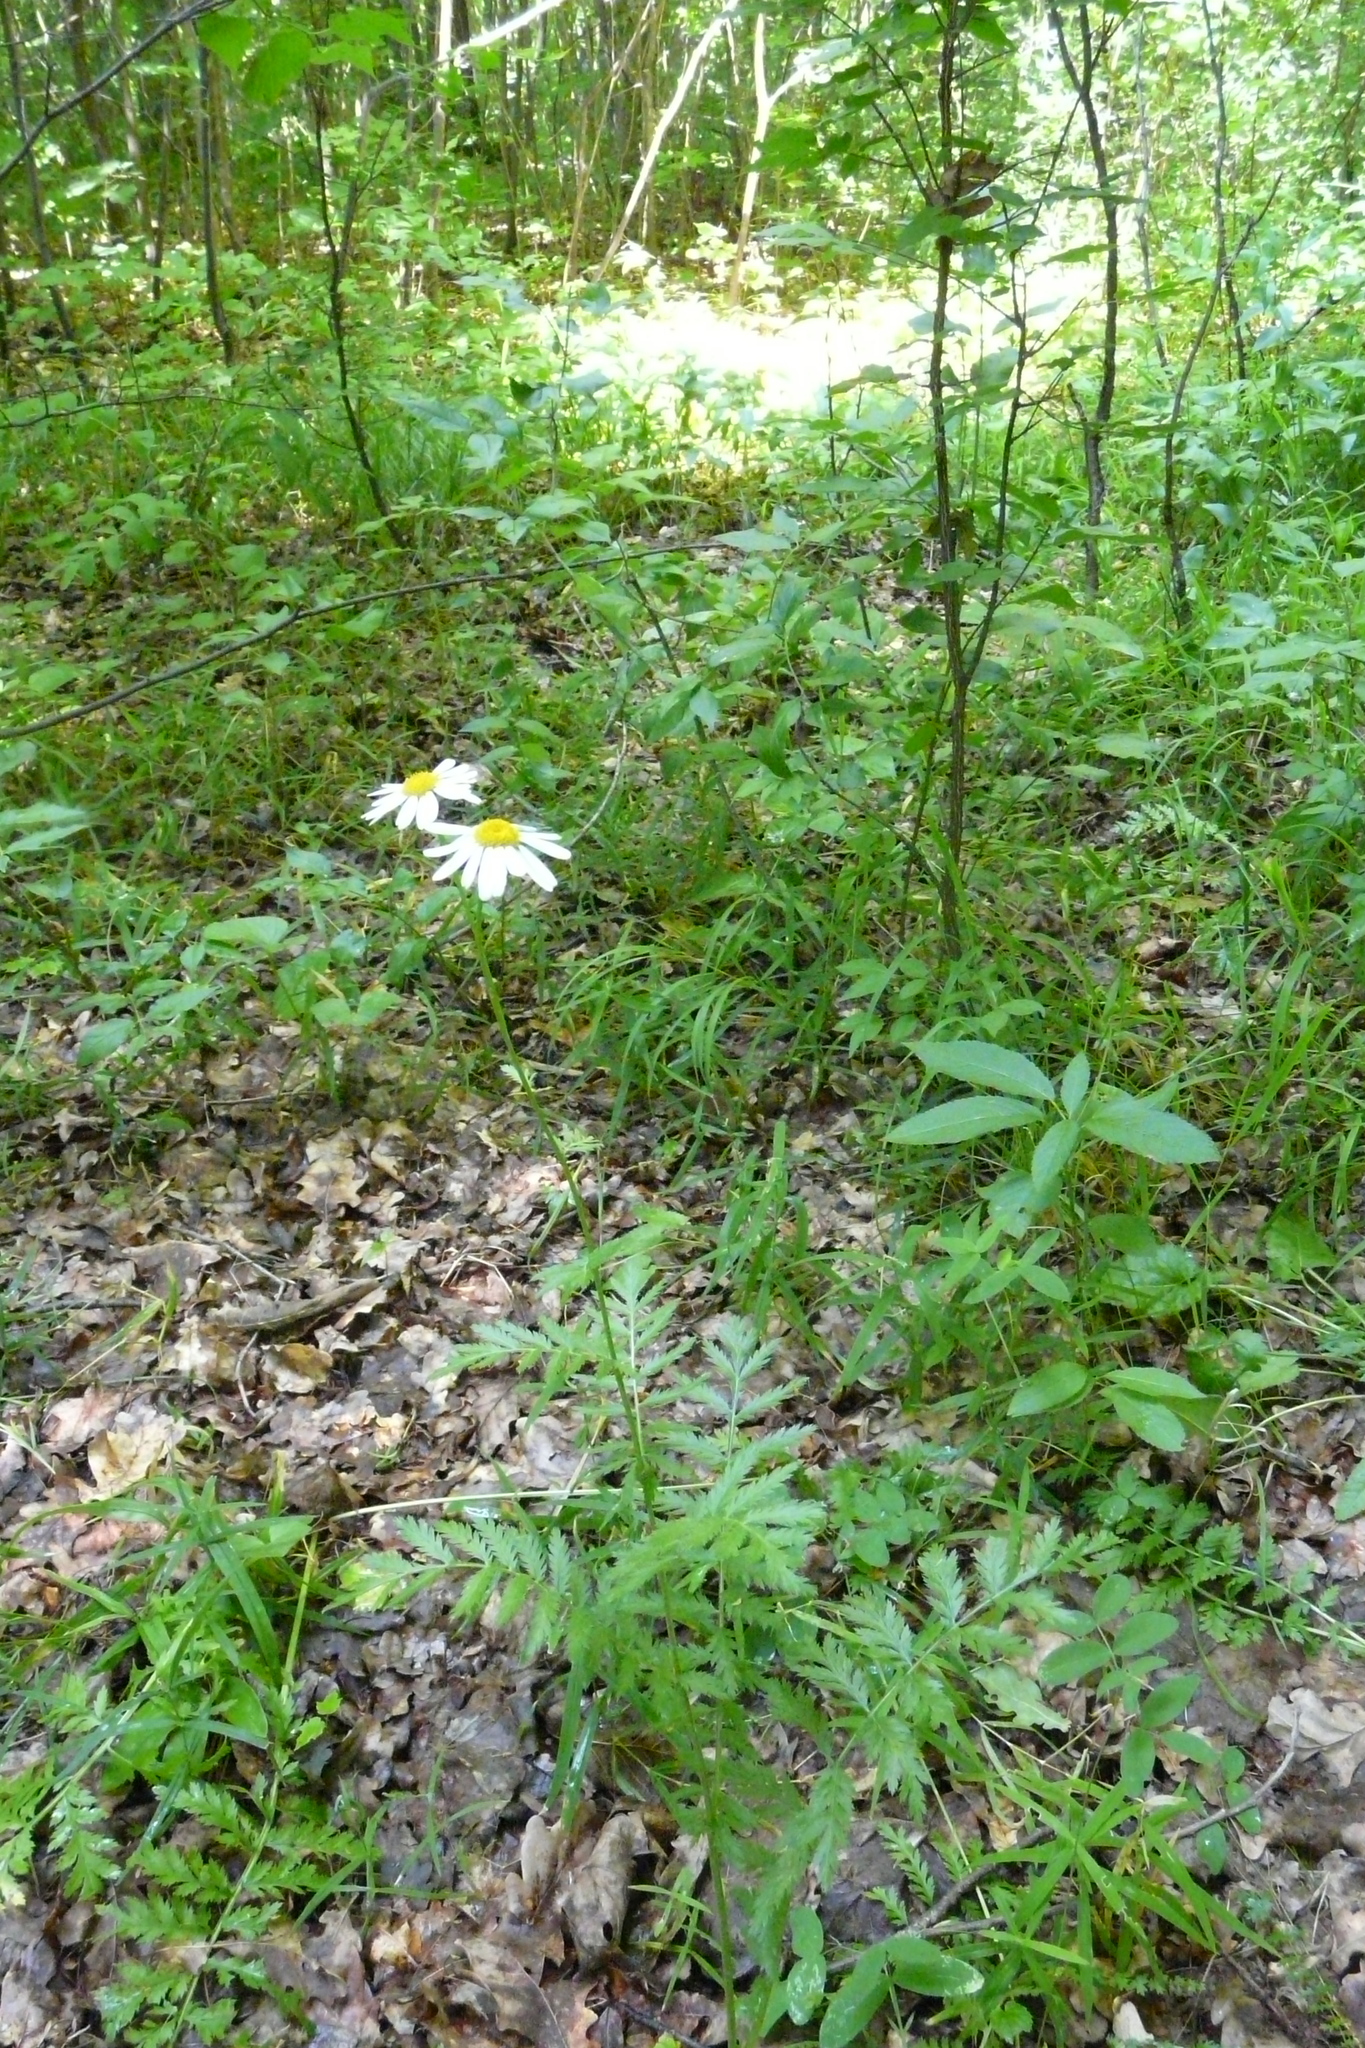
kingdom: Plantae
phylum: Tracheophyta
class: Magnoliopsida
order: Asterales
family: Asteraceae
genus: Tanacetum
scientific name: Tanacetum corymbosum
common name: Scentless feverfew
